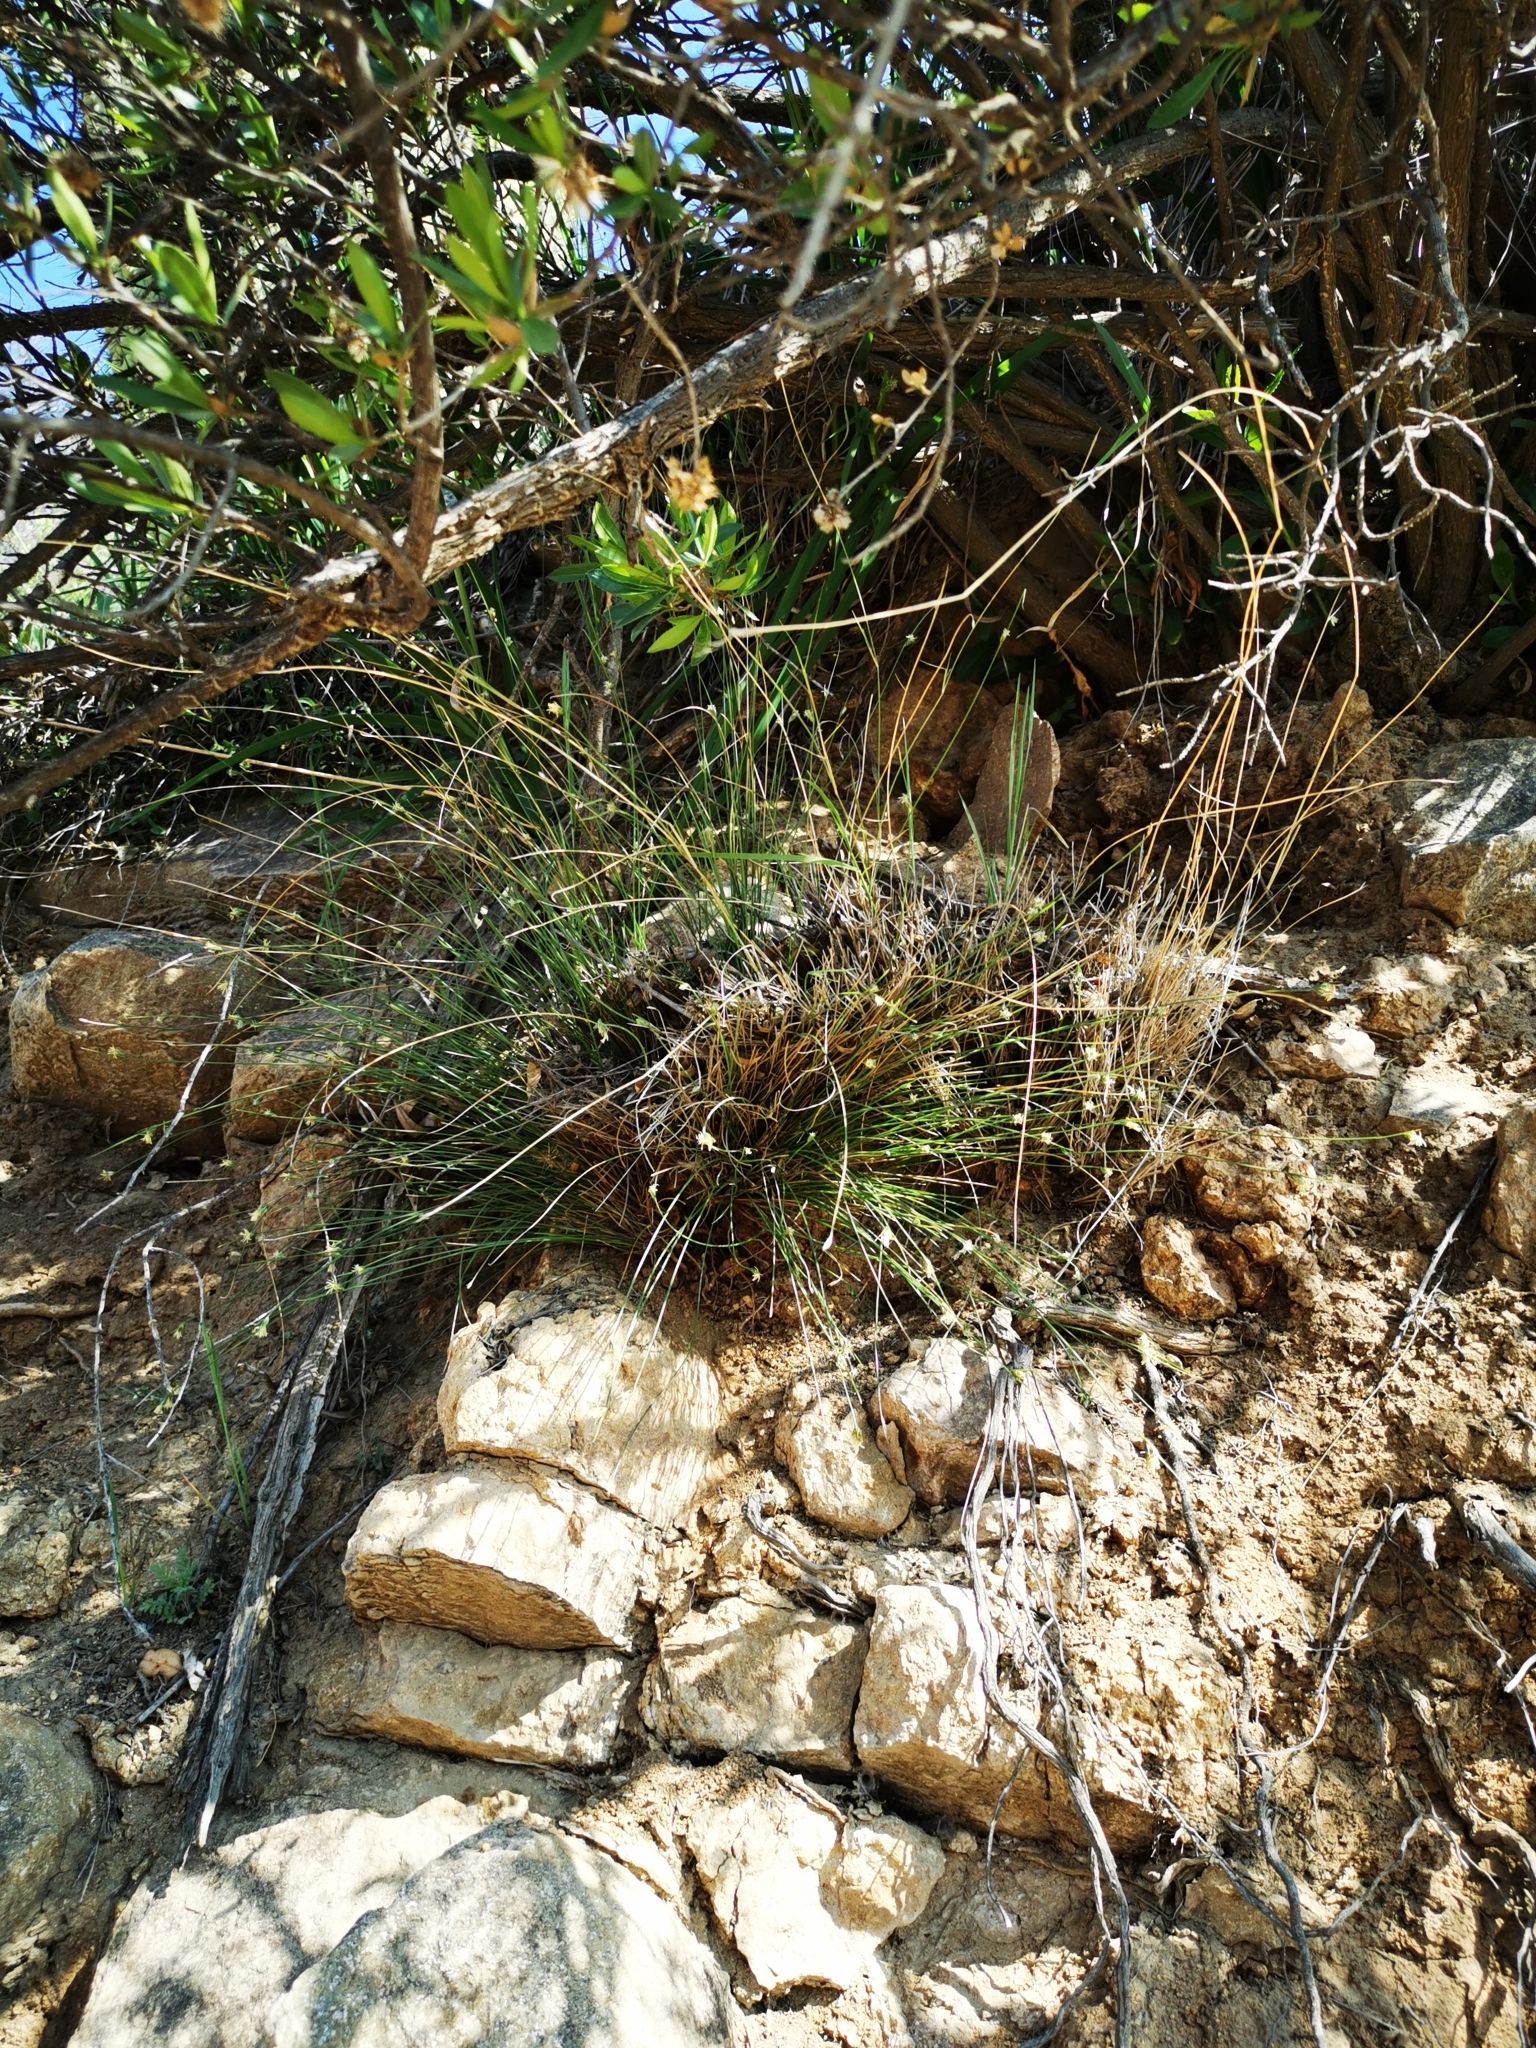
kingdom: Plantae
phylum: Tracheophyta
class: Liliopsida
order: Poales
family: Cyperaceae
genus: Carex
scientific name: Carex setifolia
